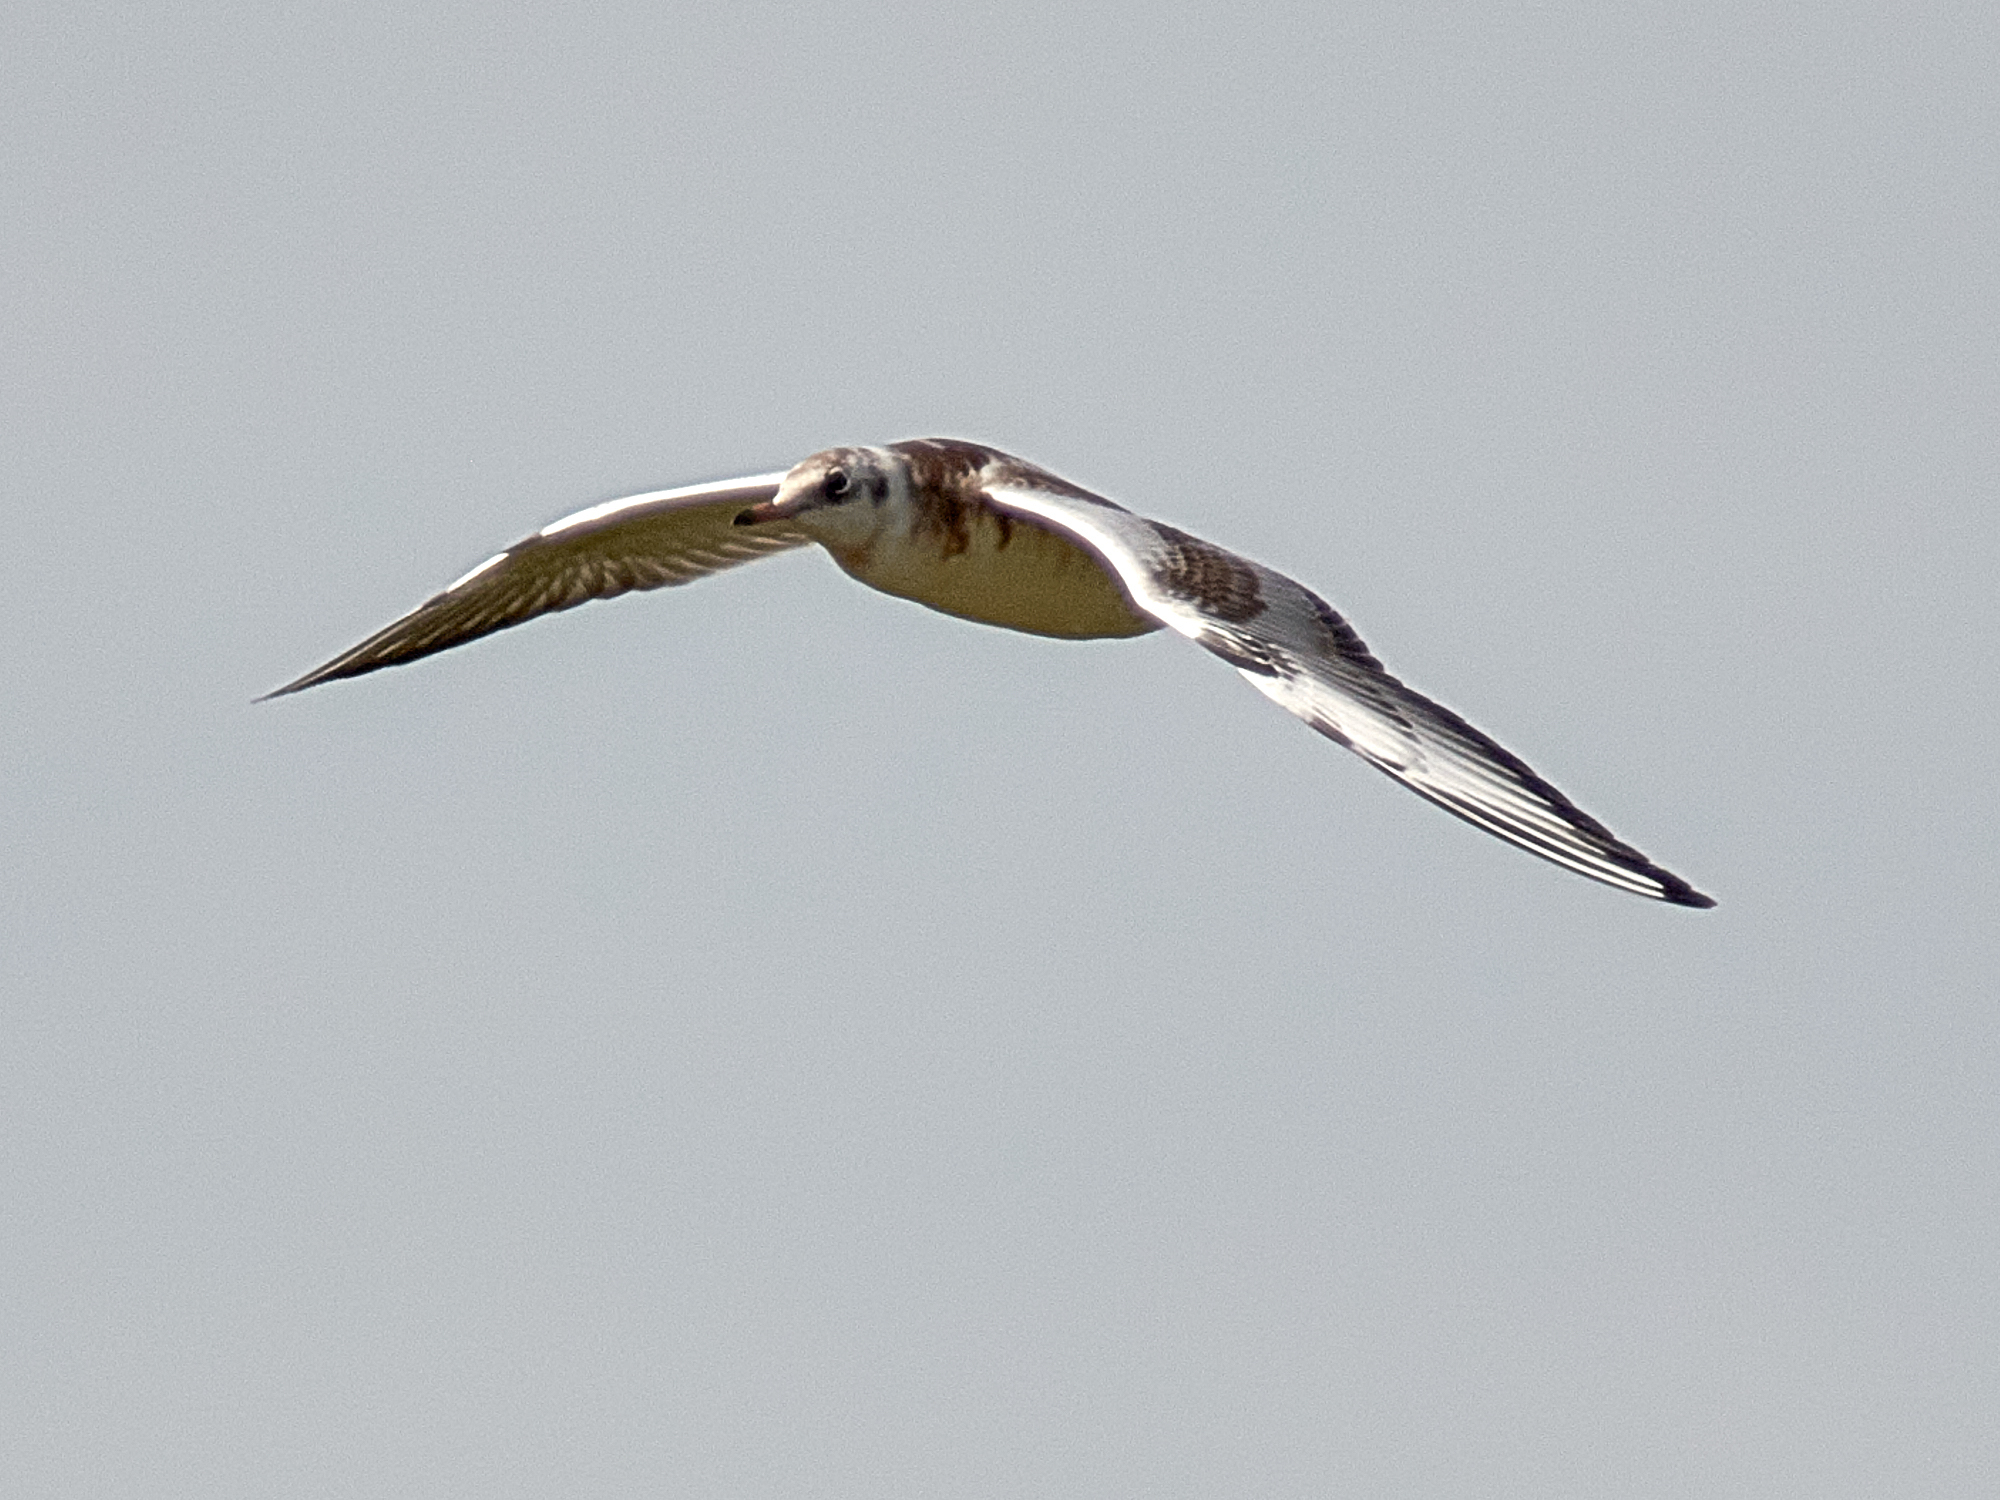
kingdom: Animalia
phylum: Chordata
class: Aves
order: Charadriiformes
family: Laridae
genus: Chroicocephalus
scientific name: Chroicocephalus ridibundus
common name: Black-headed gull
